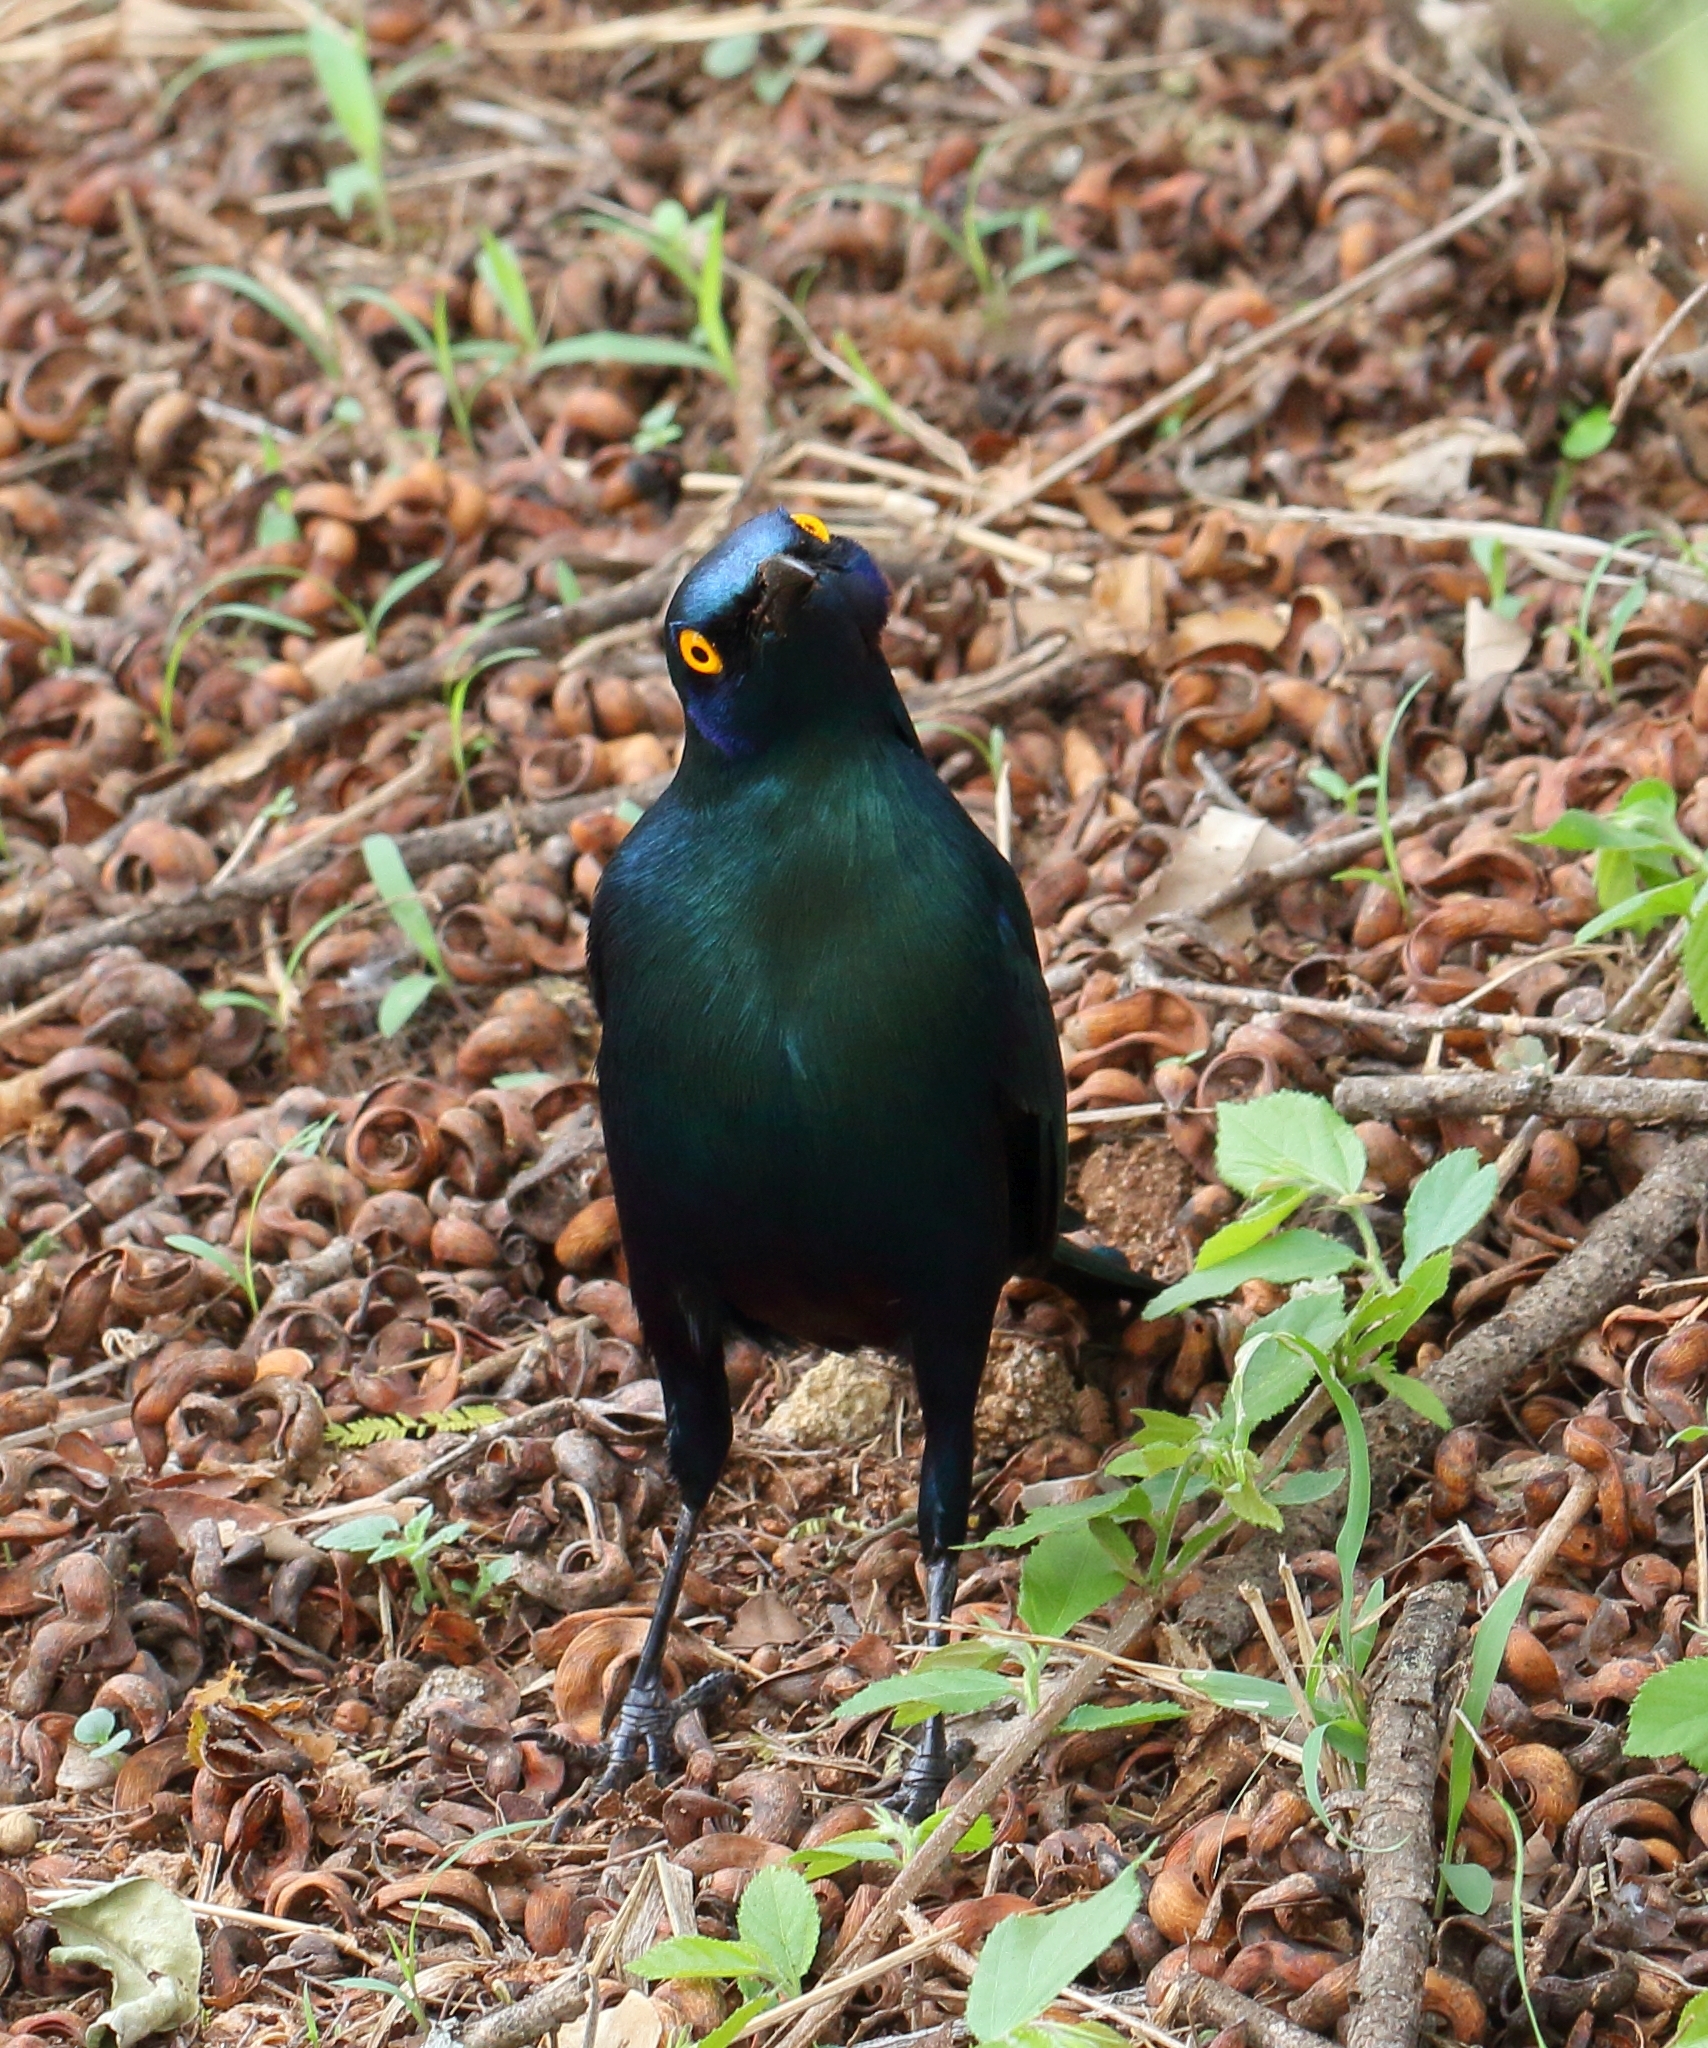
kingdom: Animalia
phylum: Chordata
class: Aves
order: Passeriformes
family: Sturnidae
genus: Lamprotornis
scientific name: Lamprotornis chalybaeus
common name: Greater blue-eared starling
